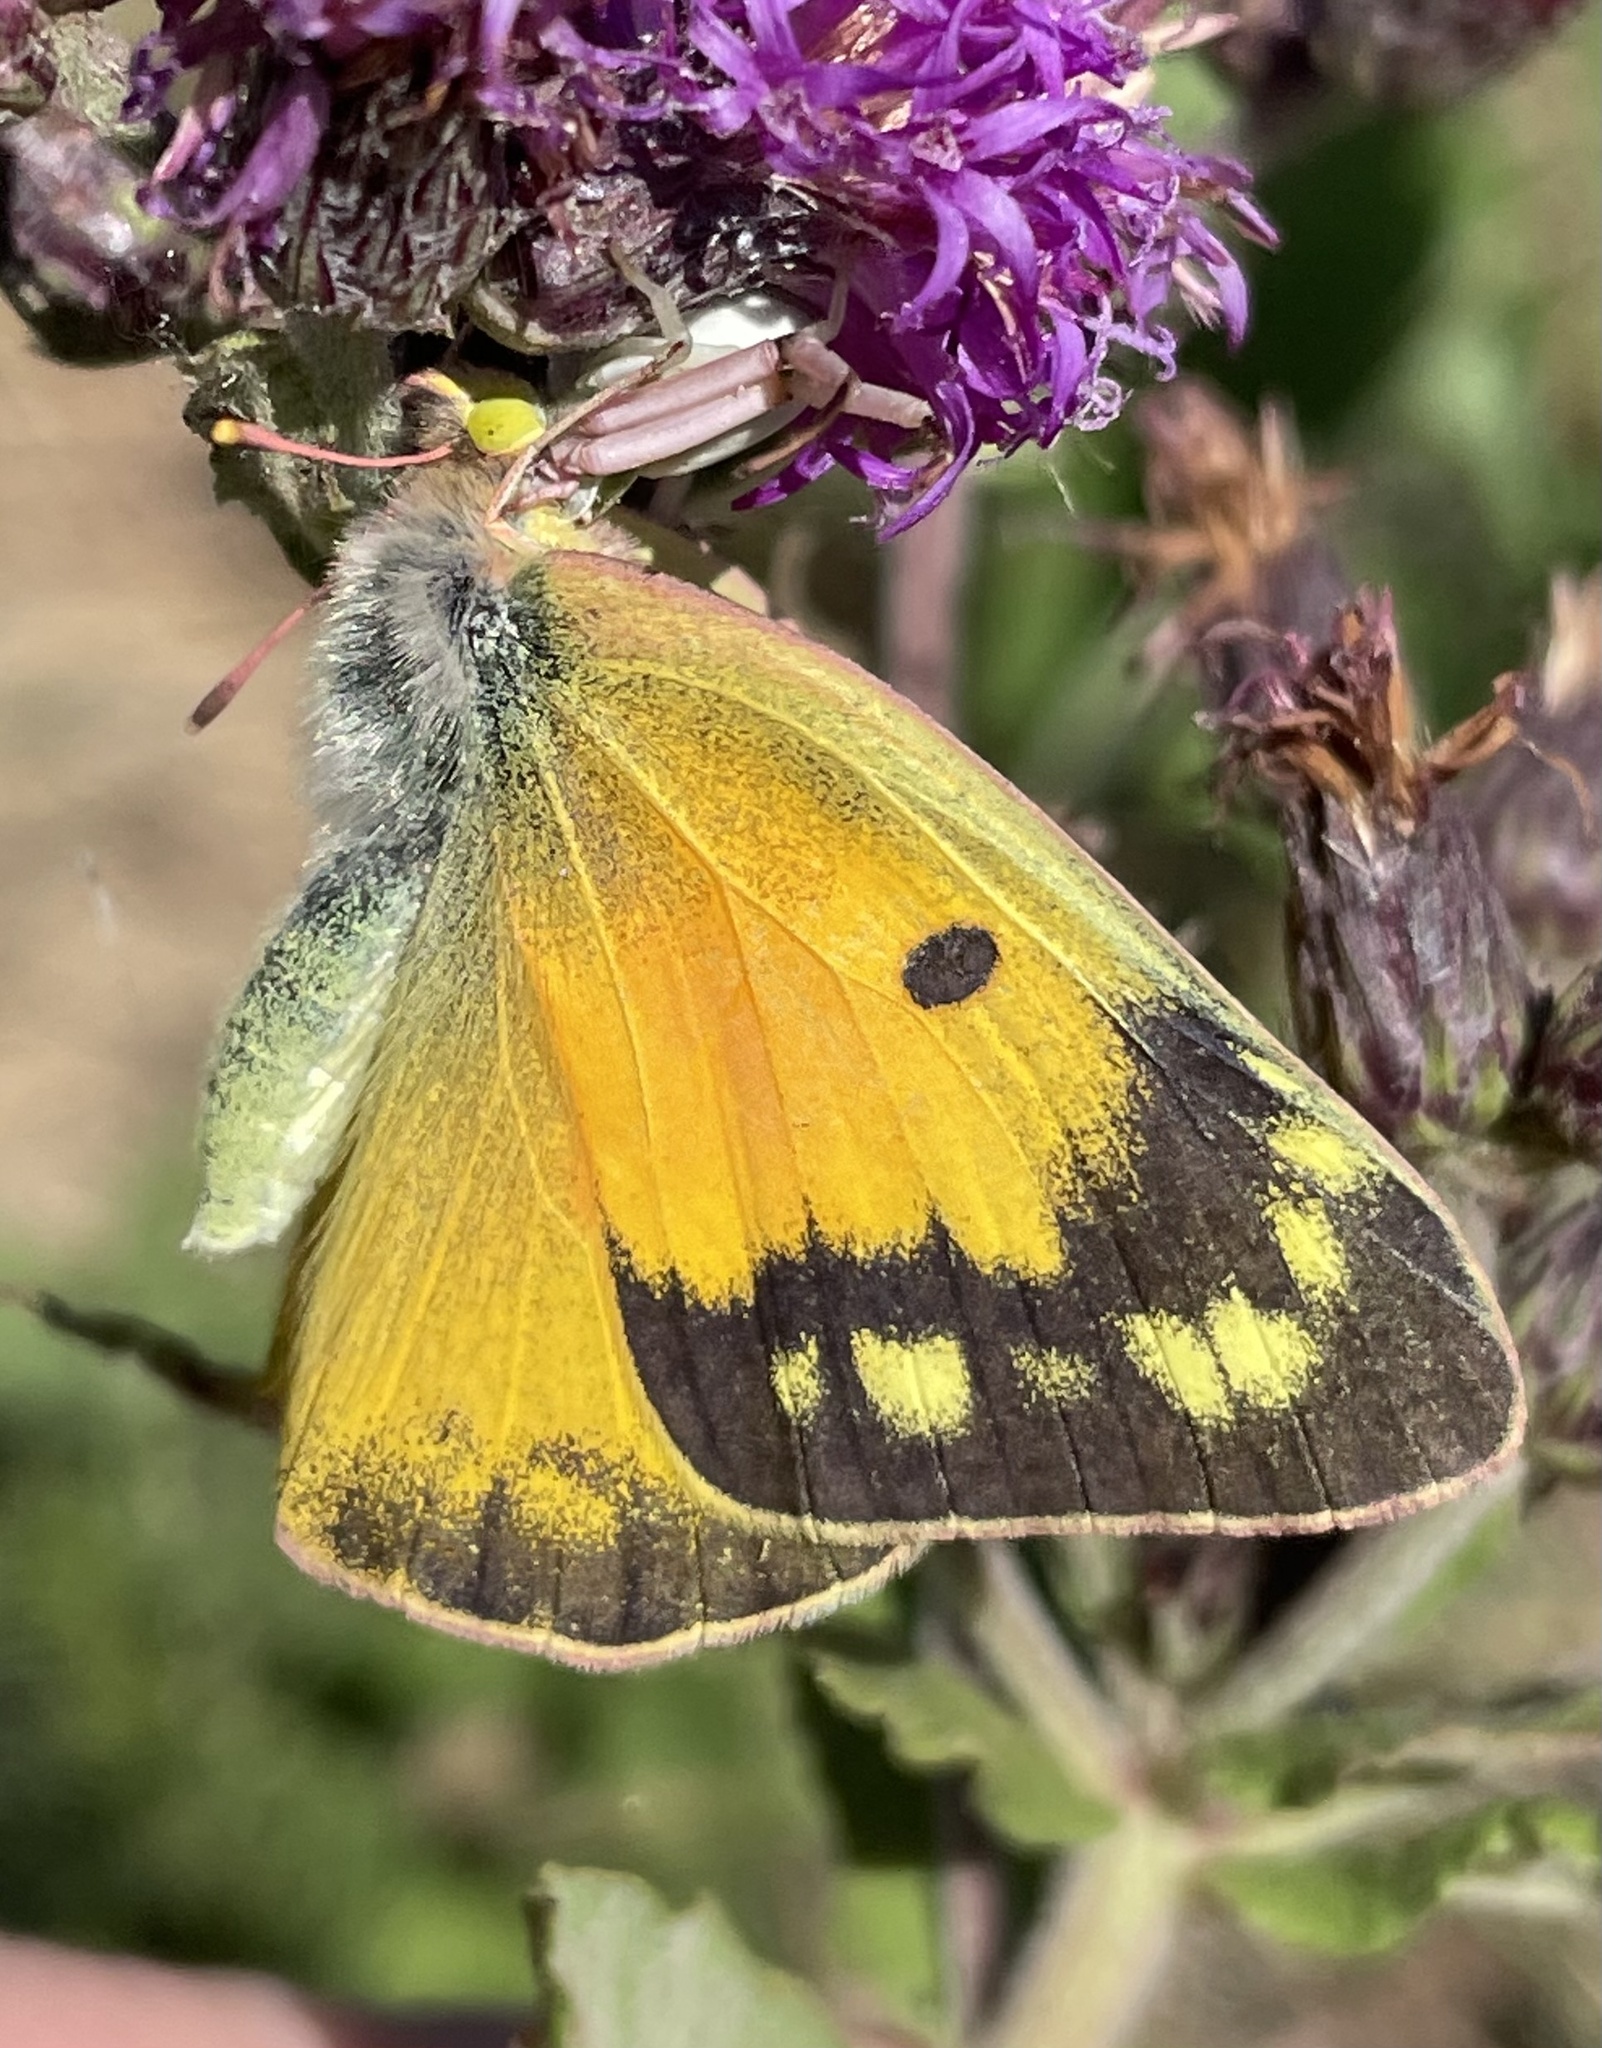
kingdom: Animalia
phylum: Arthropoda
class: Insecta
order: Lepidoptera
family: Pieridae
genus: Colias
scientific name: Colias eurytheme
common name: Alfalfa butterfly
